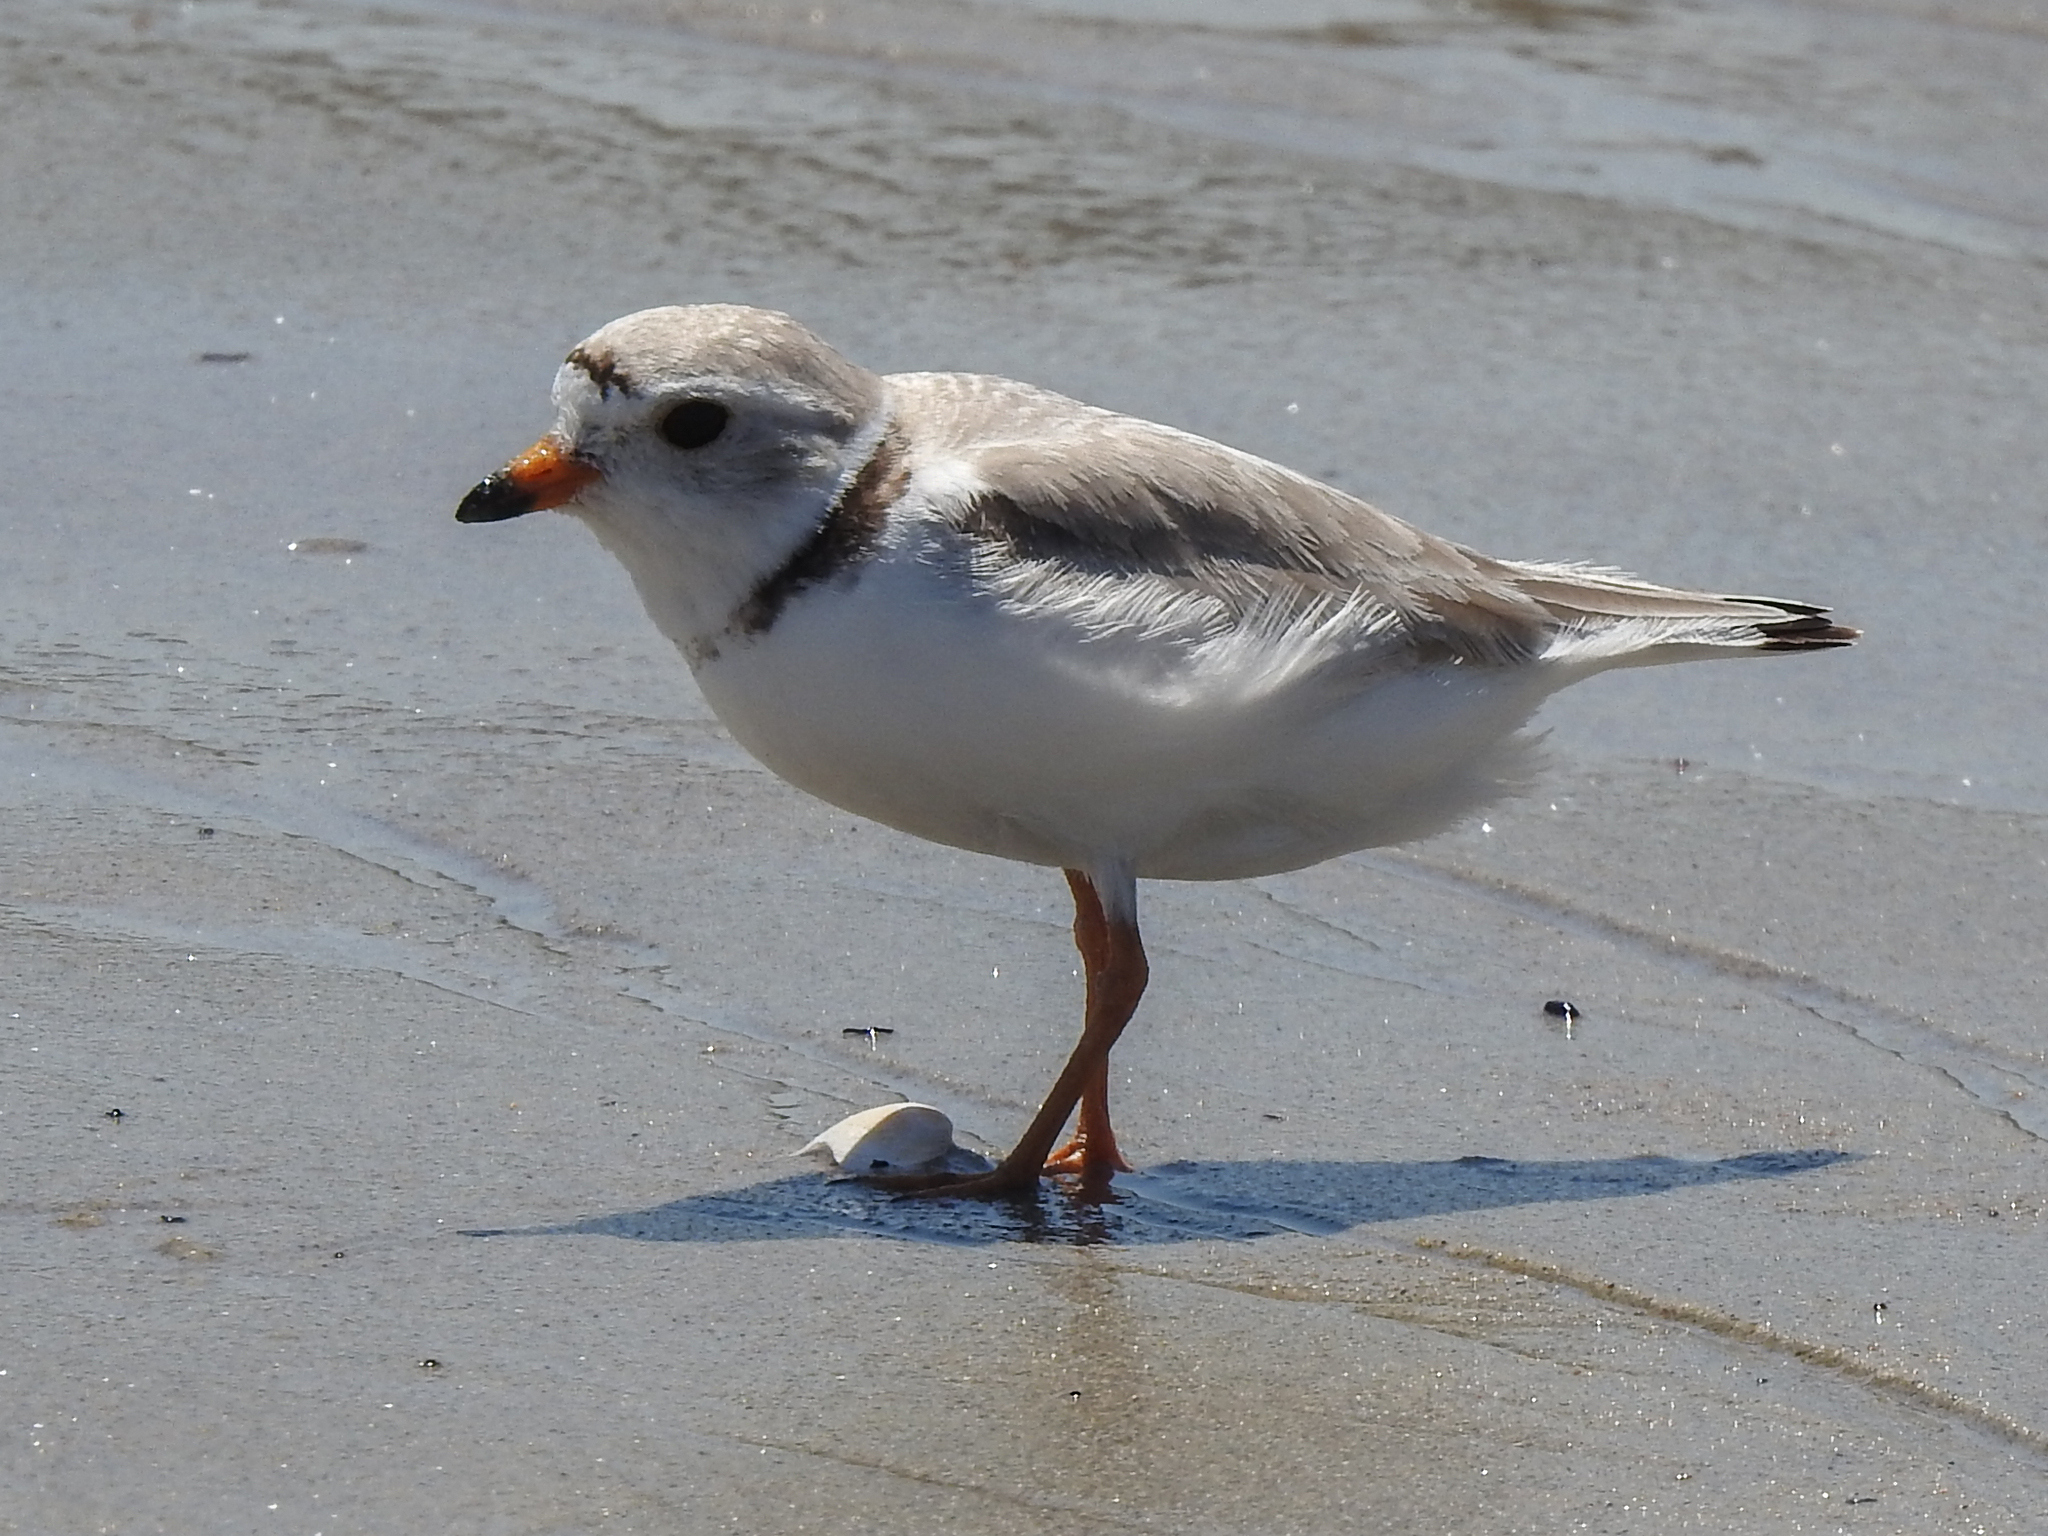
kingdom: Animalia
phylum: Chordata
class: Aves
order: Charadriiformes
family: Charadriidae
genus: Charadrius
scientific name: Charadrius melodus
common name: Piping plover
